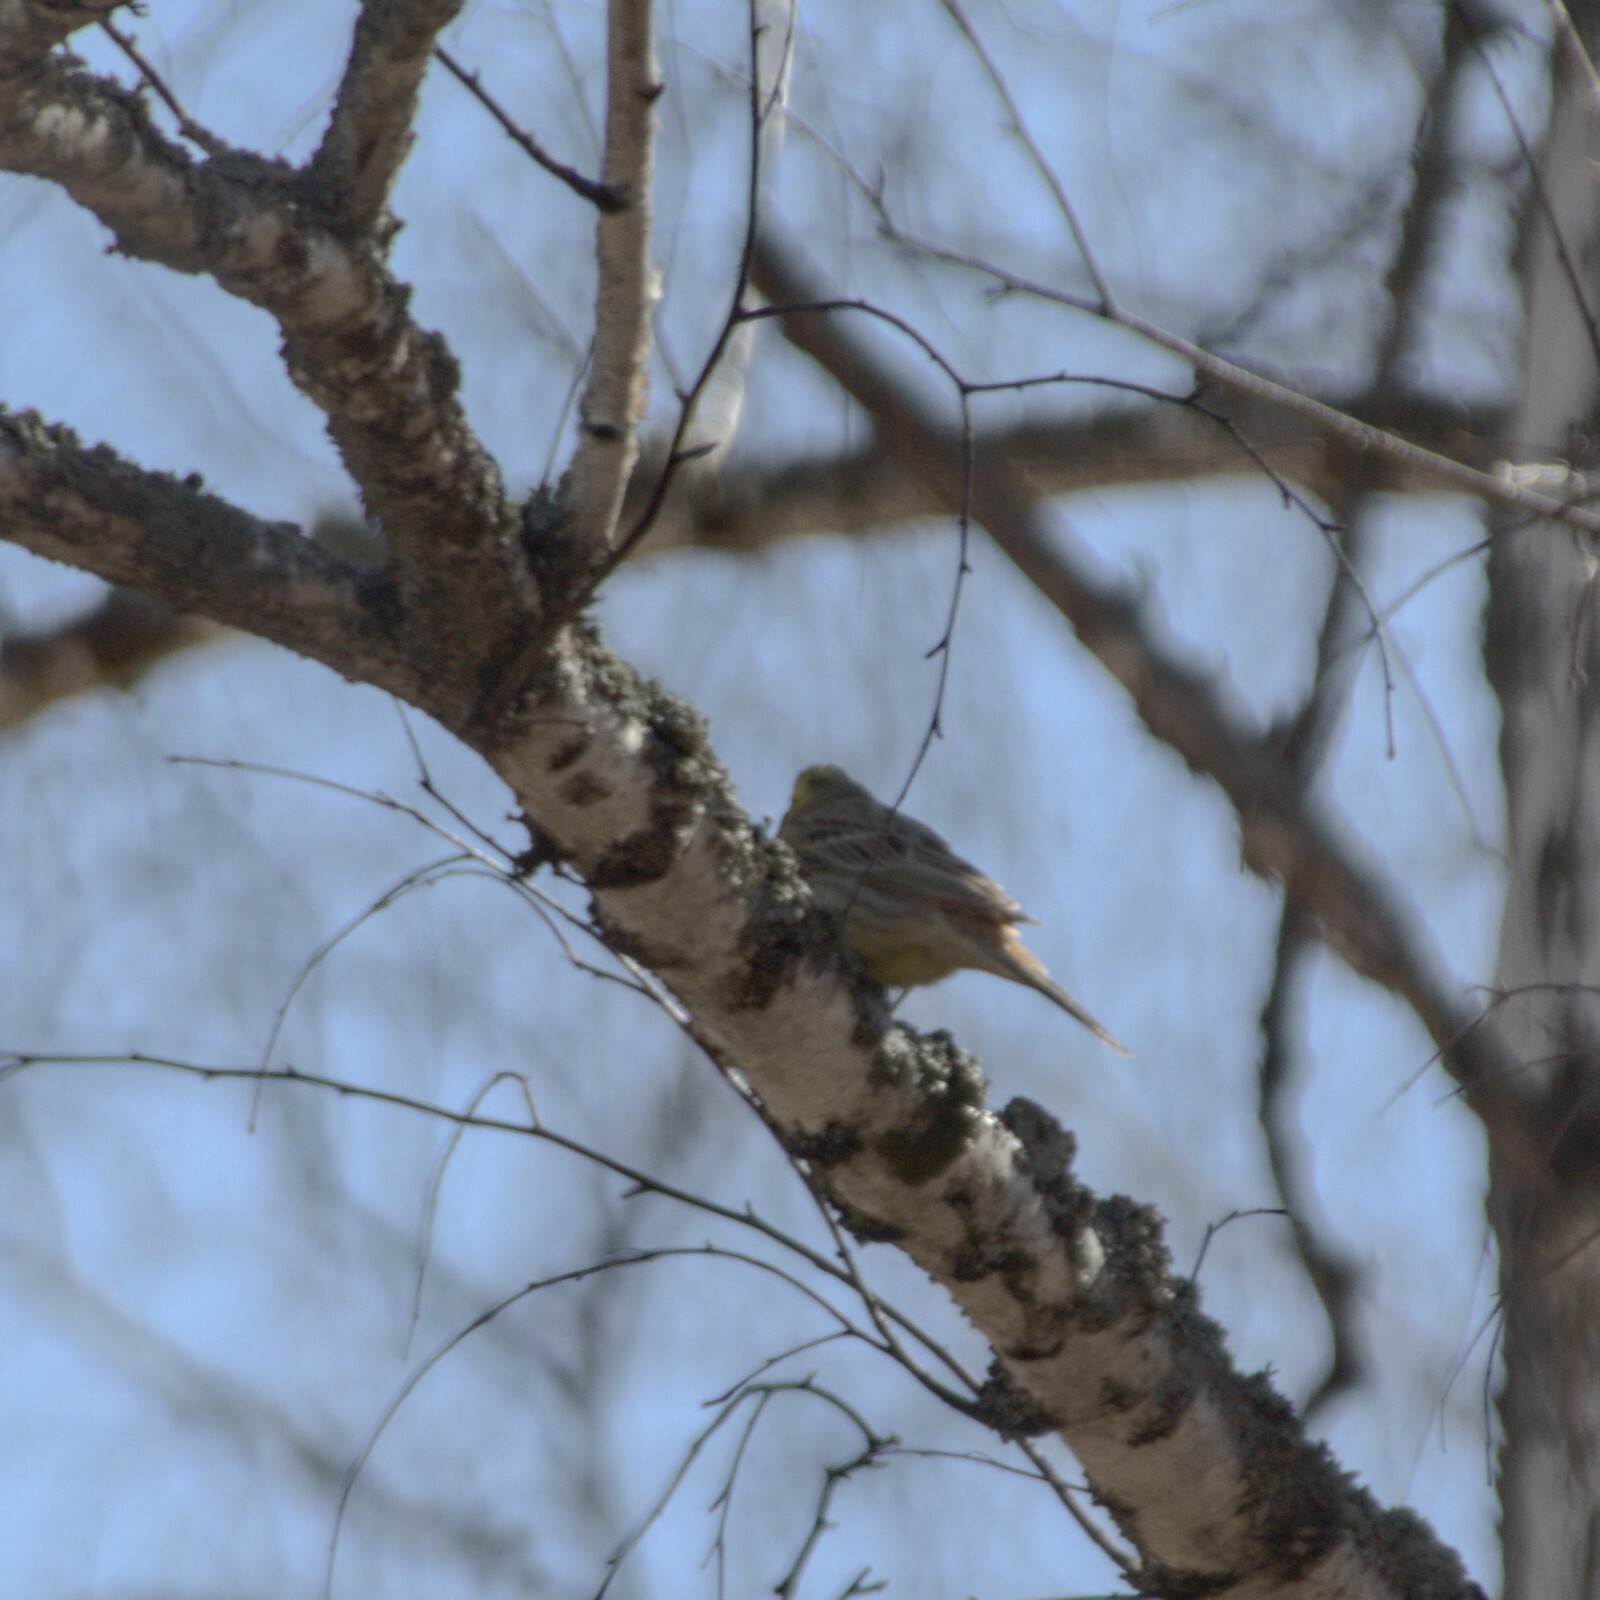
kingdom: Animalia
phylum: Chordata
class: Aves
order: Passeriformes
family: Emberizidae
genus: Emberiza
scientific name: Emberiza citrinella
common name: Yellowhammer
